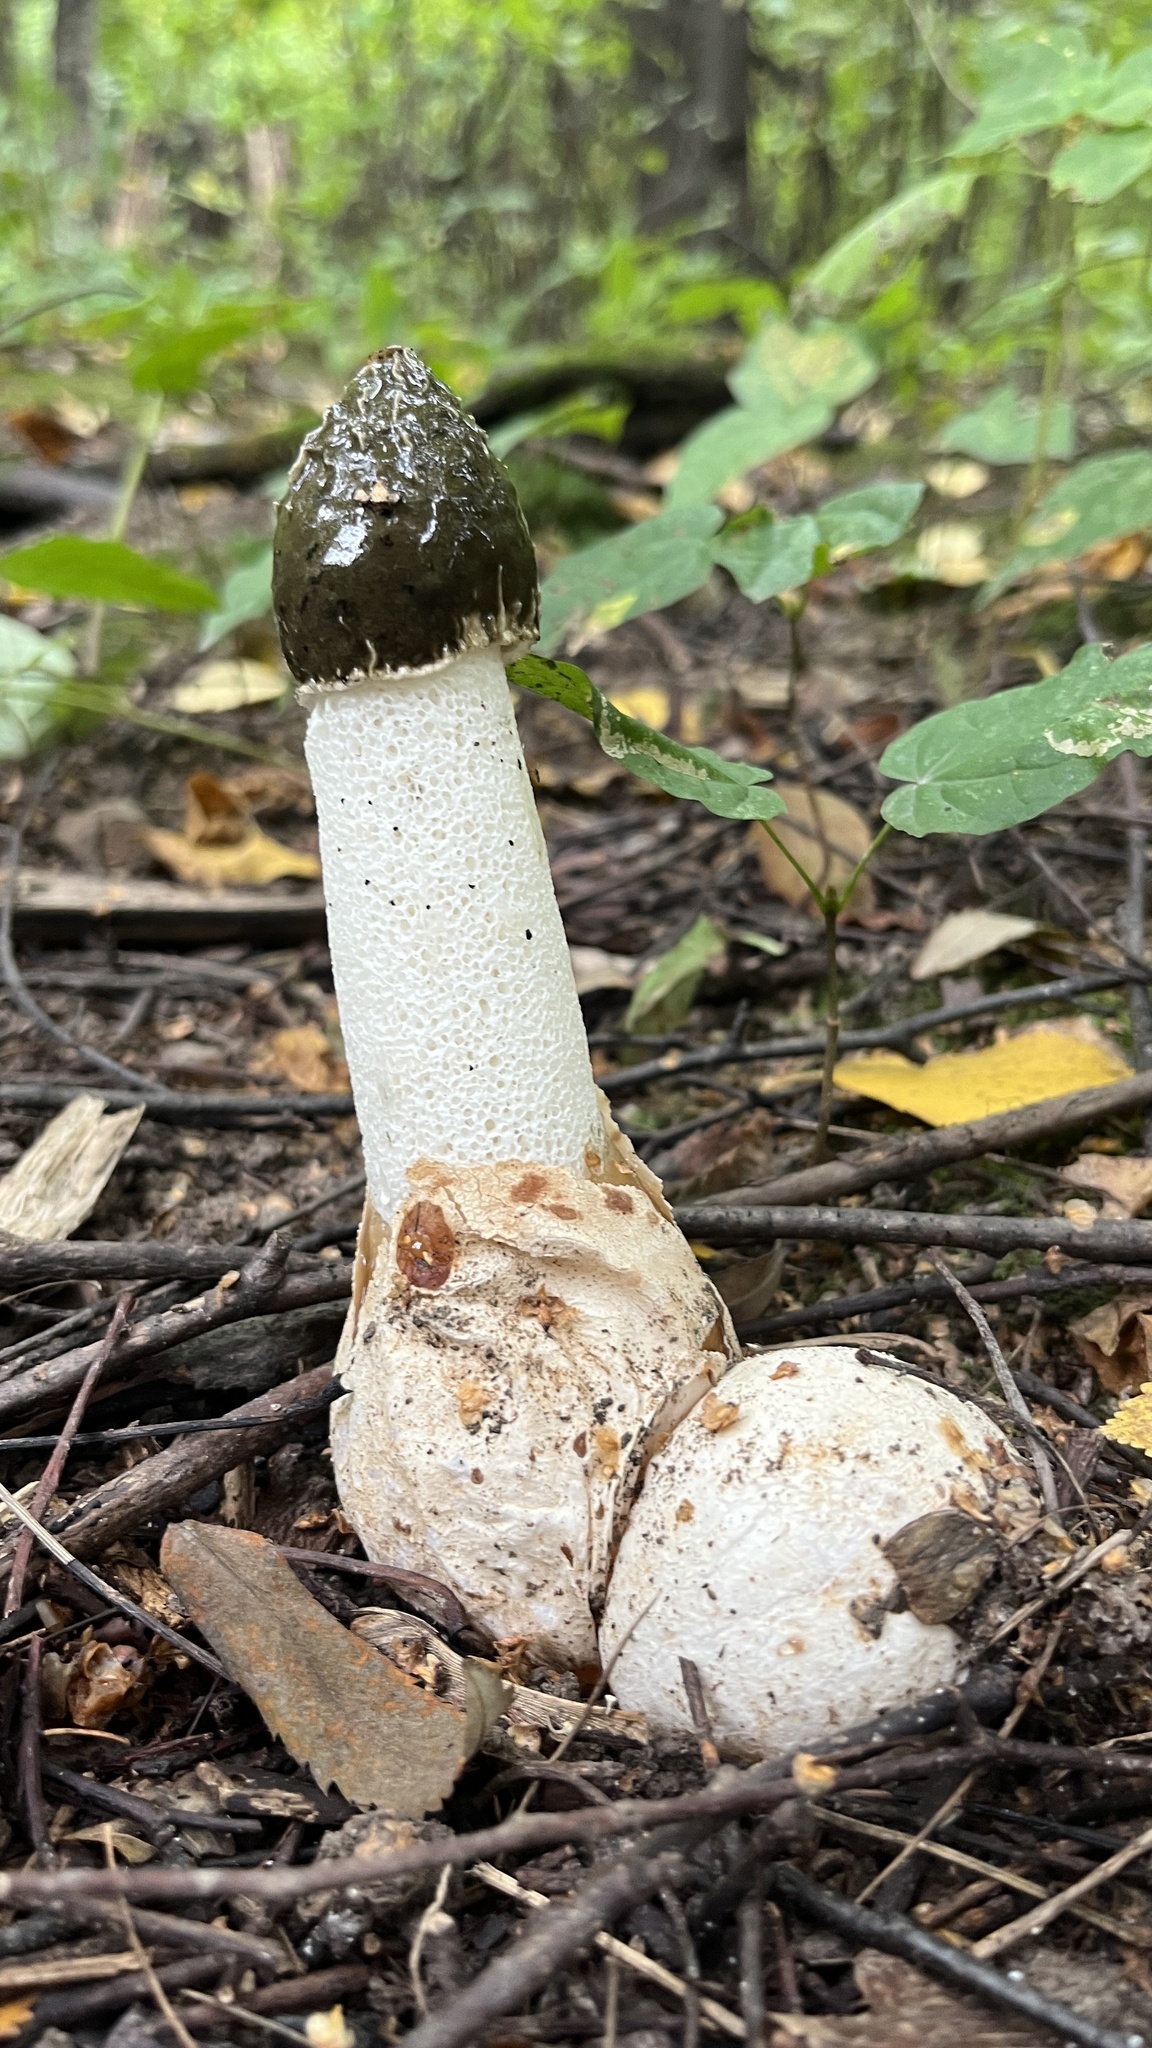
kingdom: Fungi
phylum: Basidiomycota
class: Agaricomycetes
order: Phallales
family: Phallaceae
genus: Phallus
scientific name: Phallus impudicus
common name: Common stinkhorn
